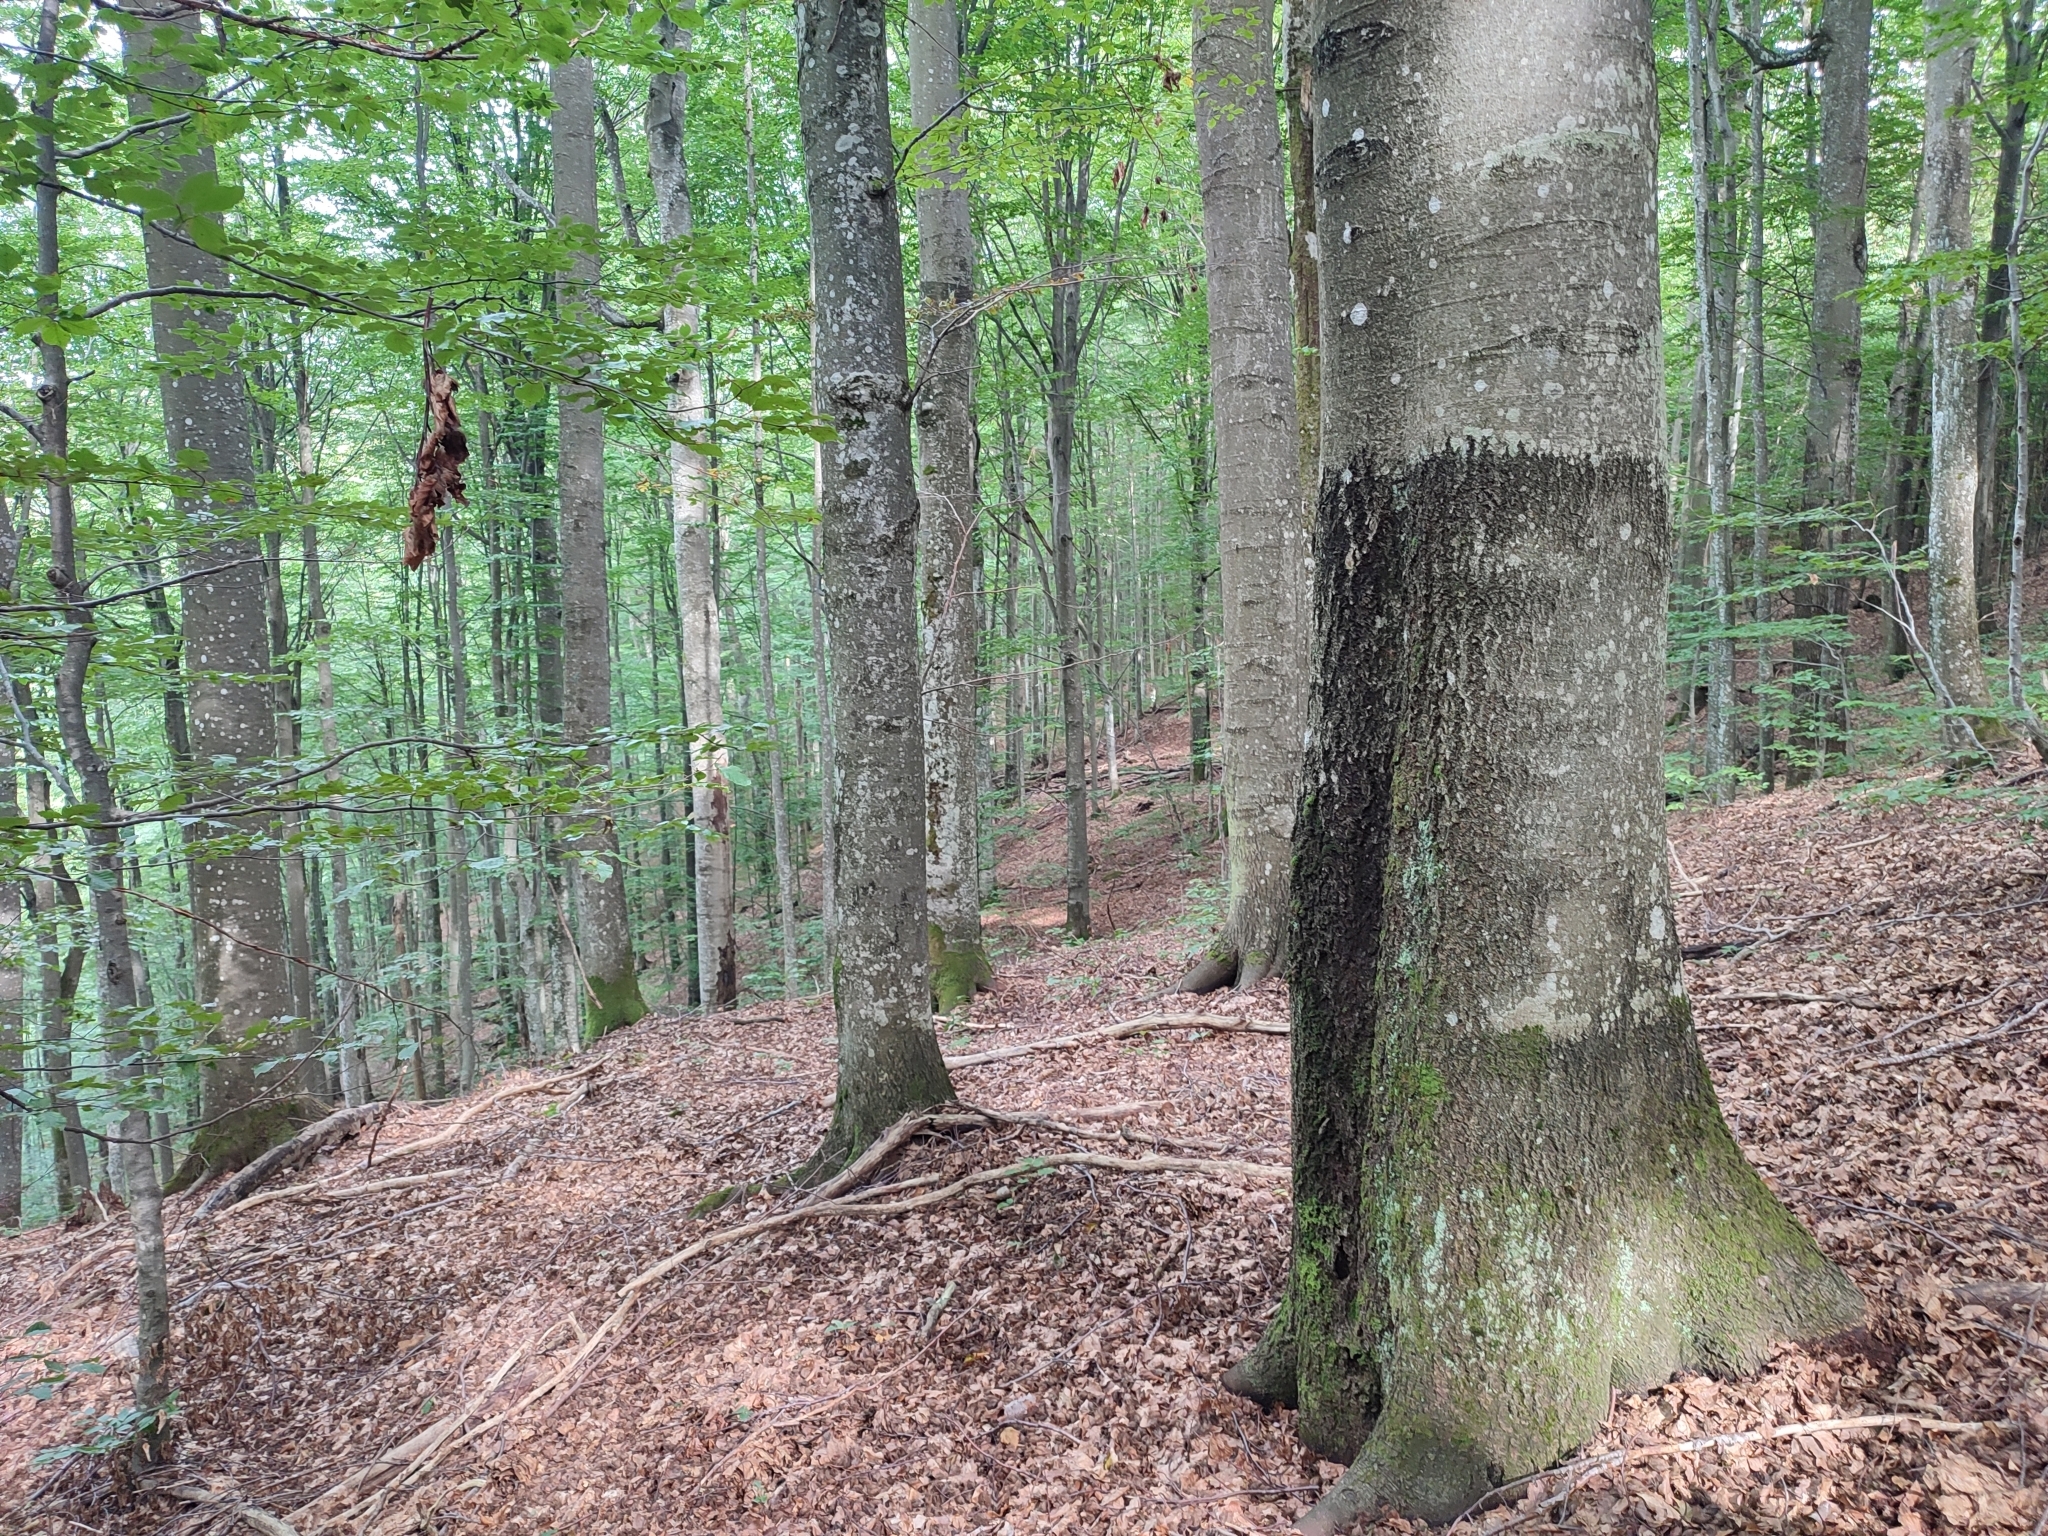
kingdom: Plantae
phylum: Tracheophyta
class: Magnoliopsida
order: Fagales
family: Fagaceae
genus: Fagus
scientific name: Fagus sylvatica
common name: Beech
